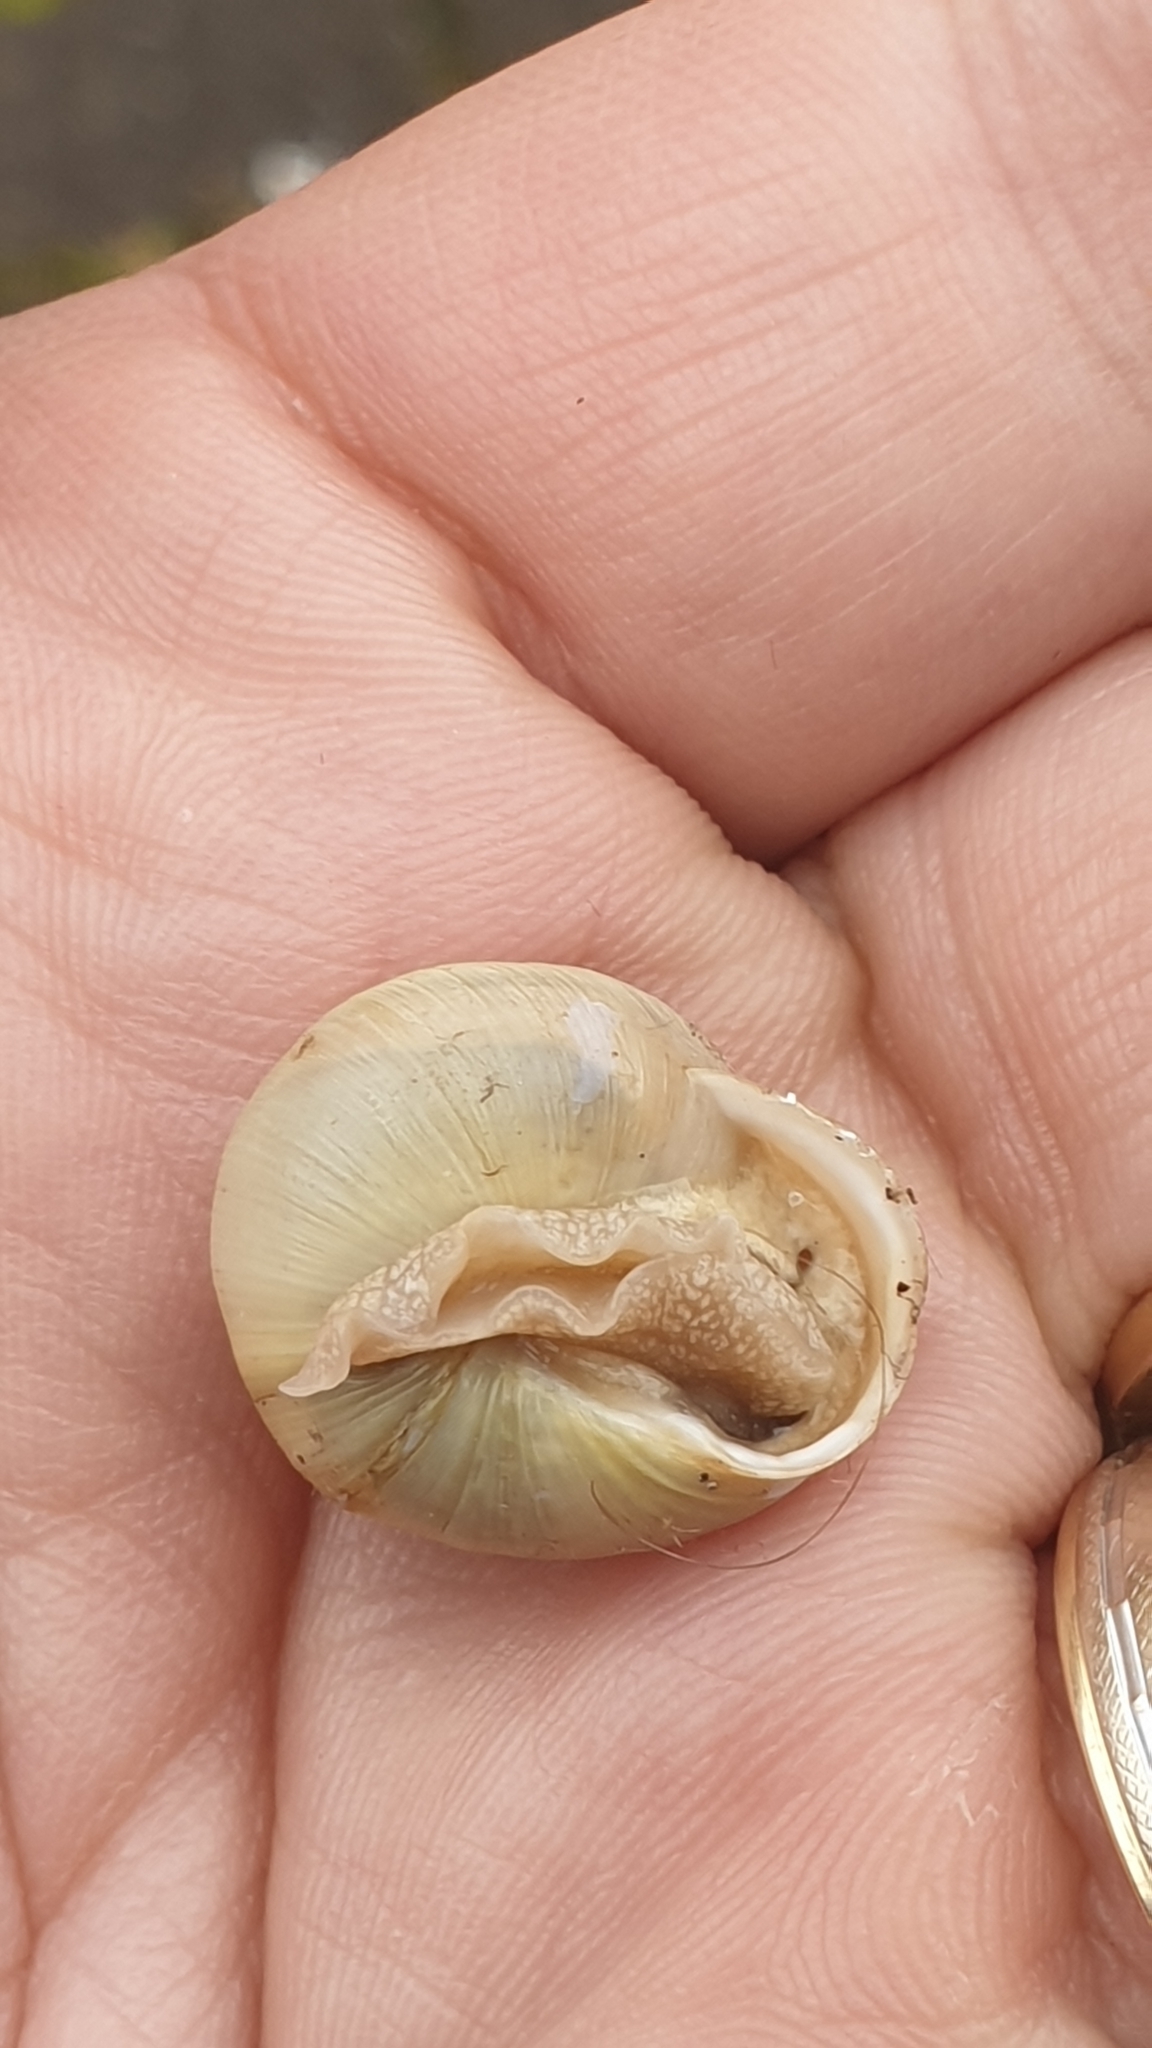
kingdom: Animalia
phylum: Mollusca
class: Gastropoda
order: Stylommatophora
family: Helicidae
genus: Cepaea
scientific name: Cepaea hortensis
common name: White-lip gardensnail
